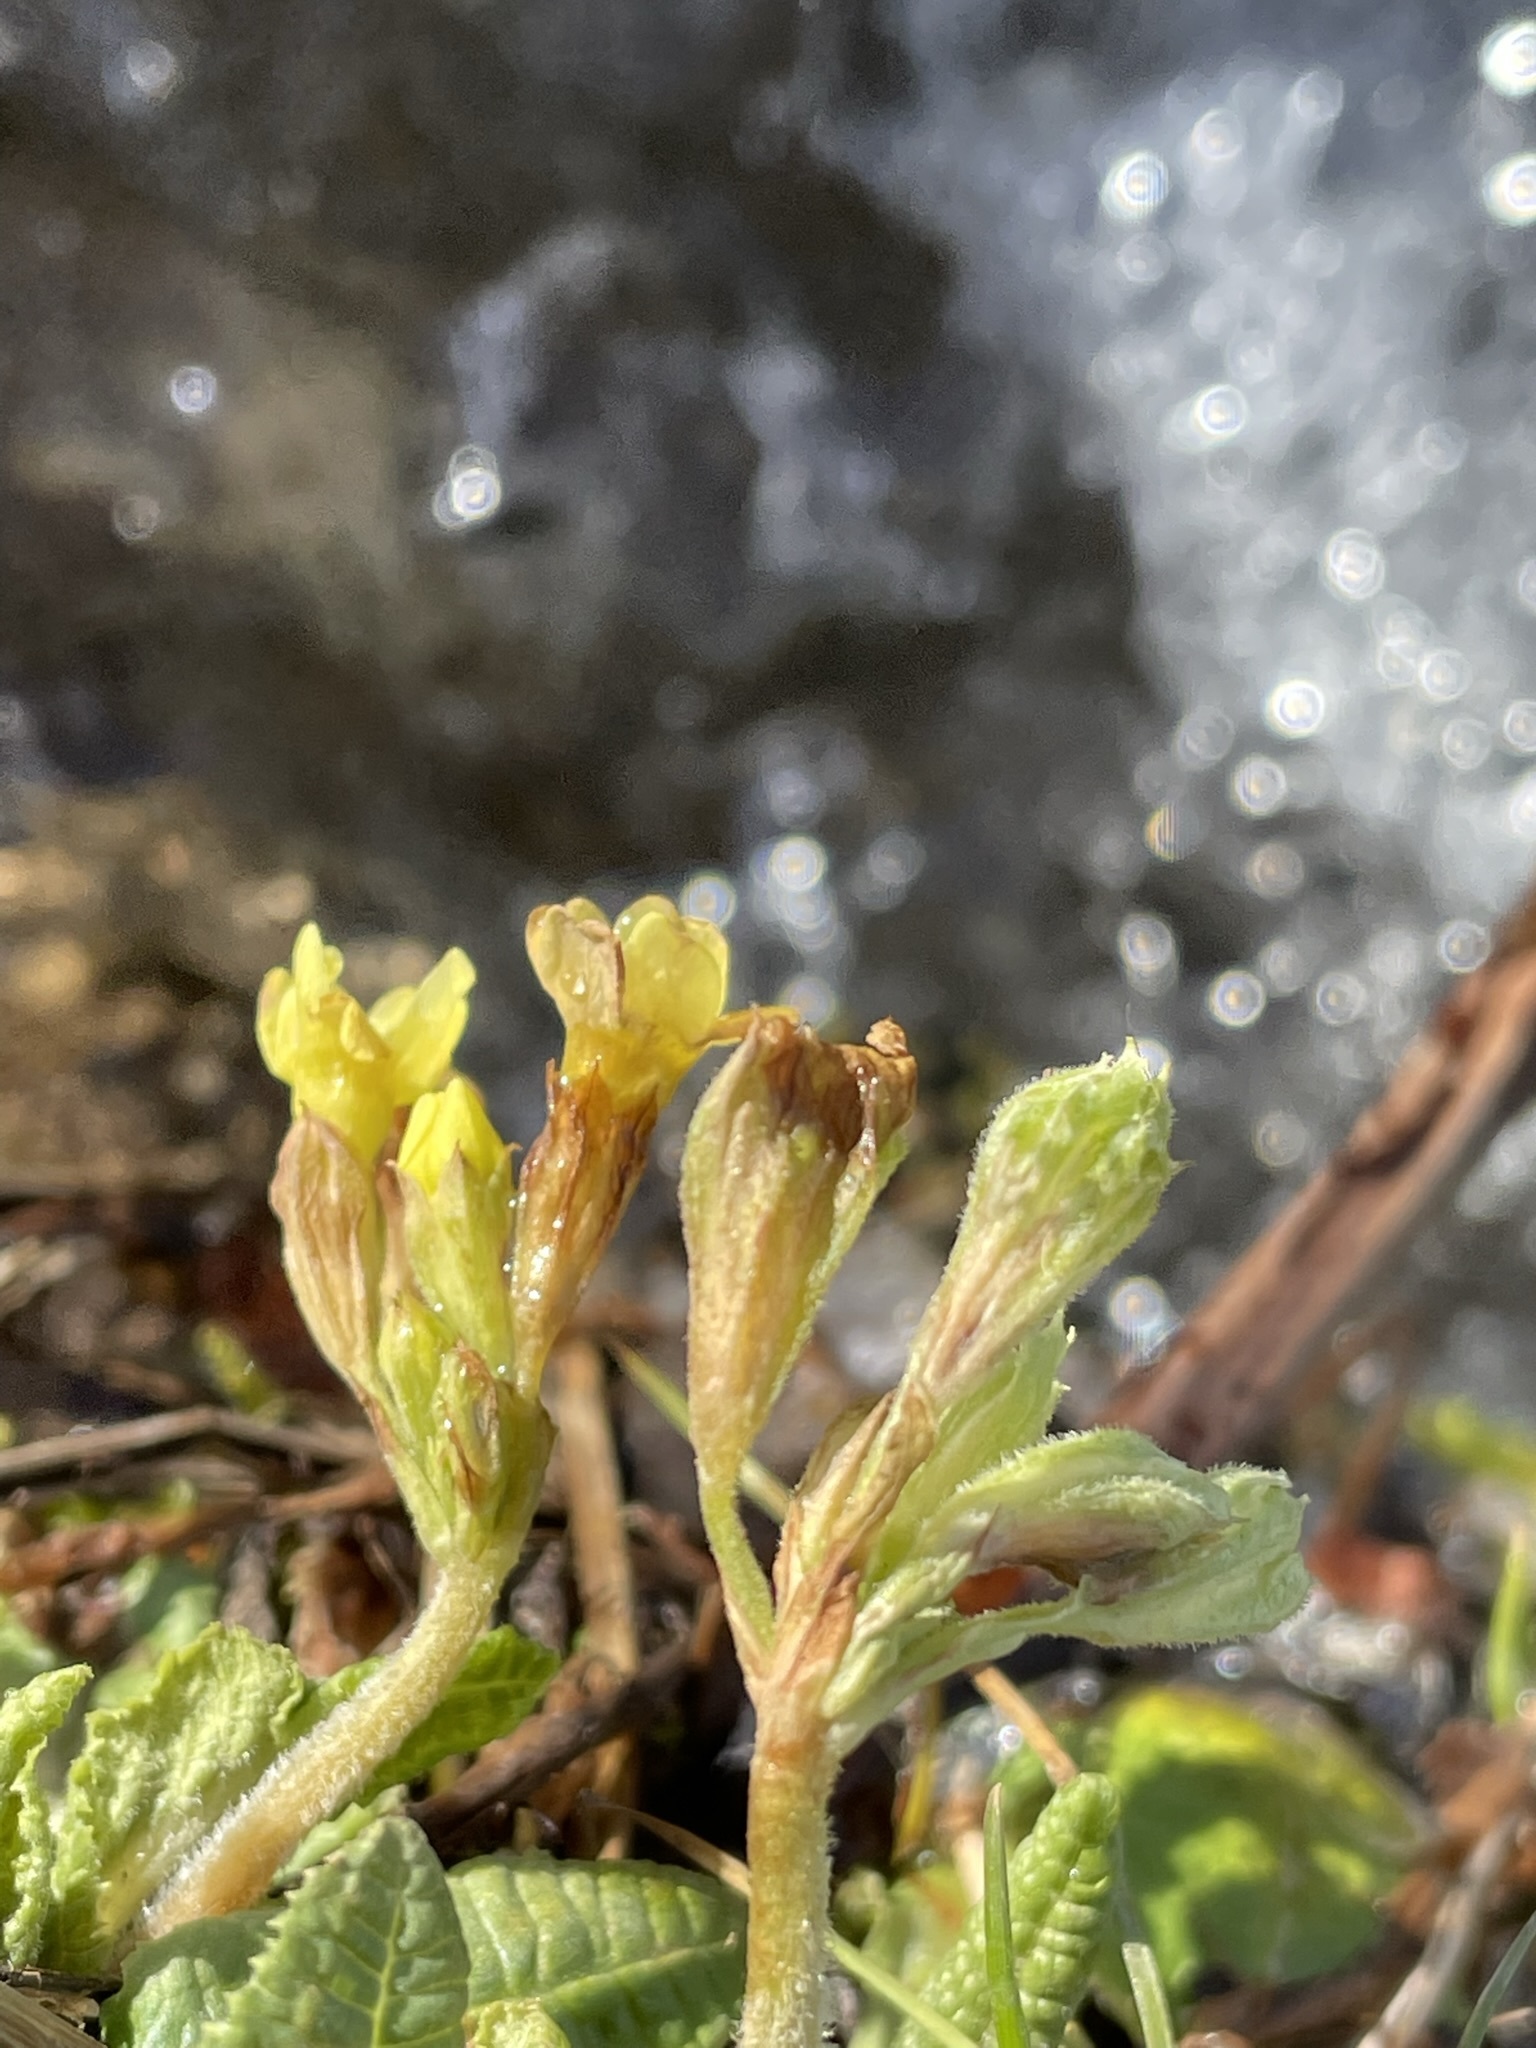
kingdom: Plantae
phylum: Tracheophyta
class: Magnoliopsida
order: Ericales
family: Primulaceae
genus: Primula
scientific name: Primula elatior
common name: Oxlip
